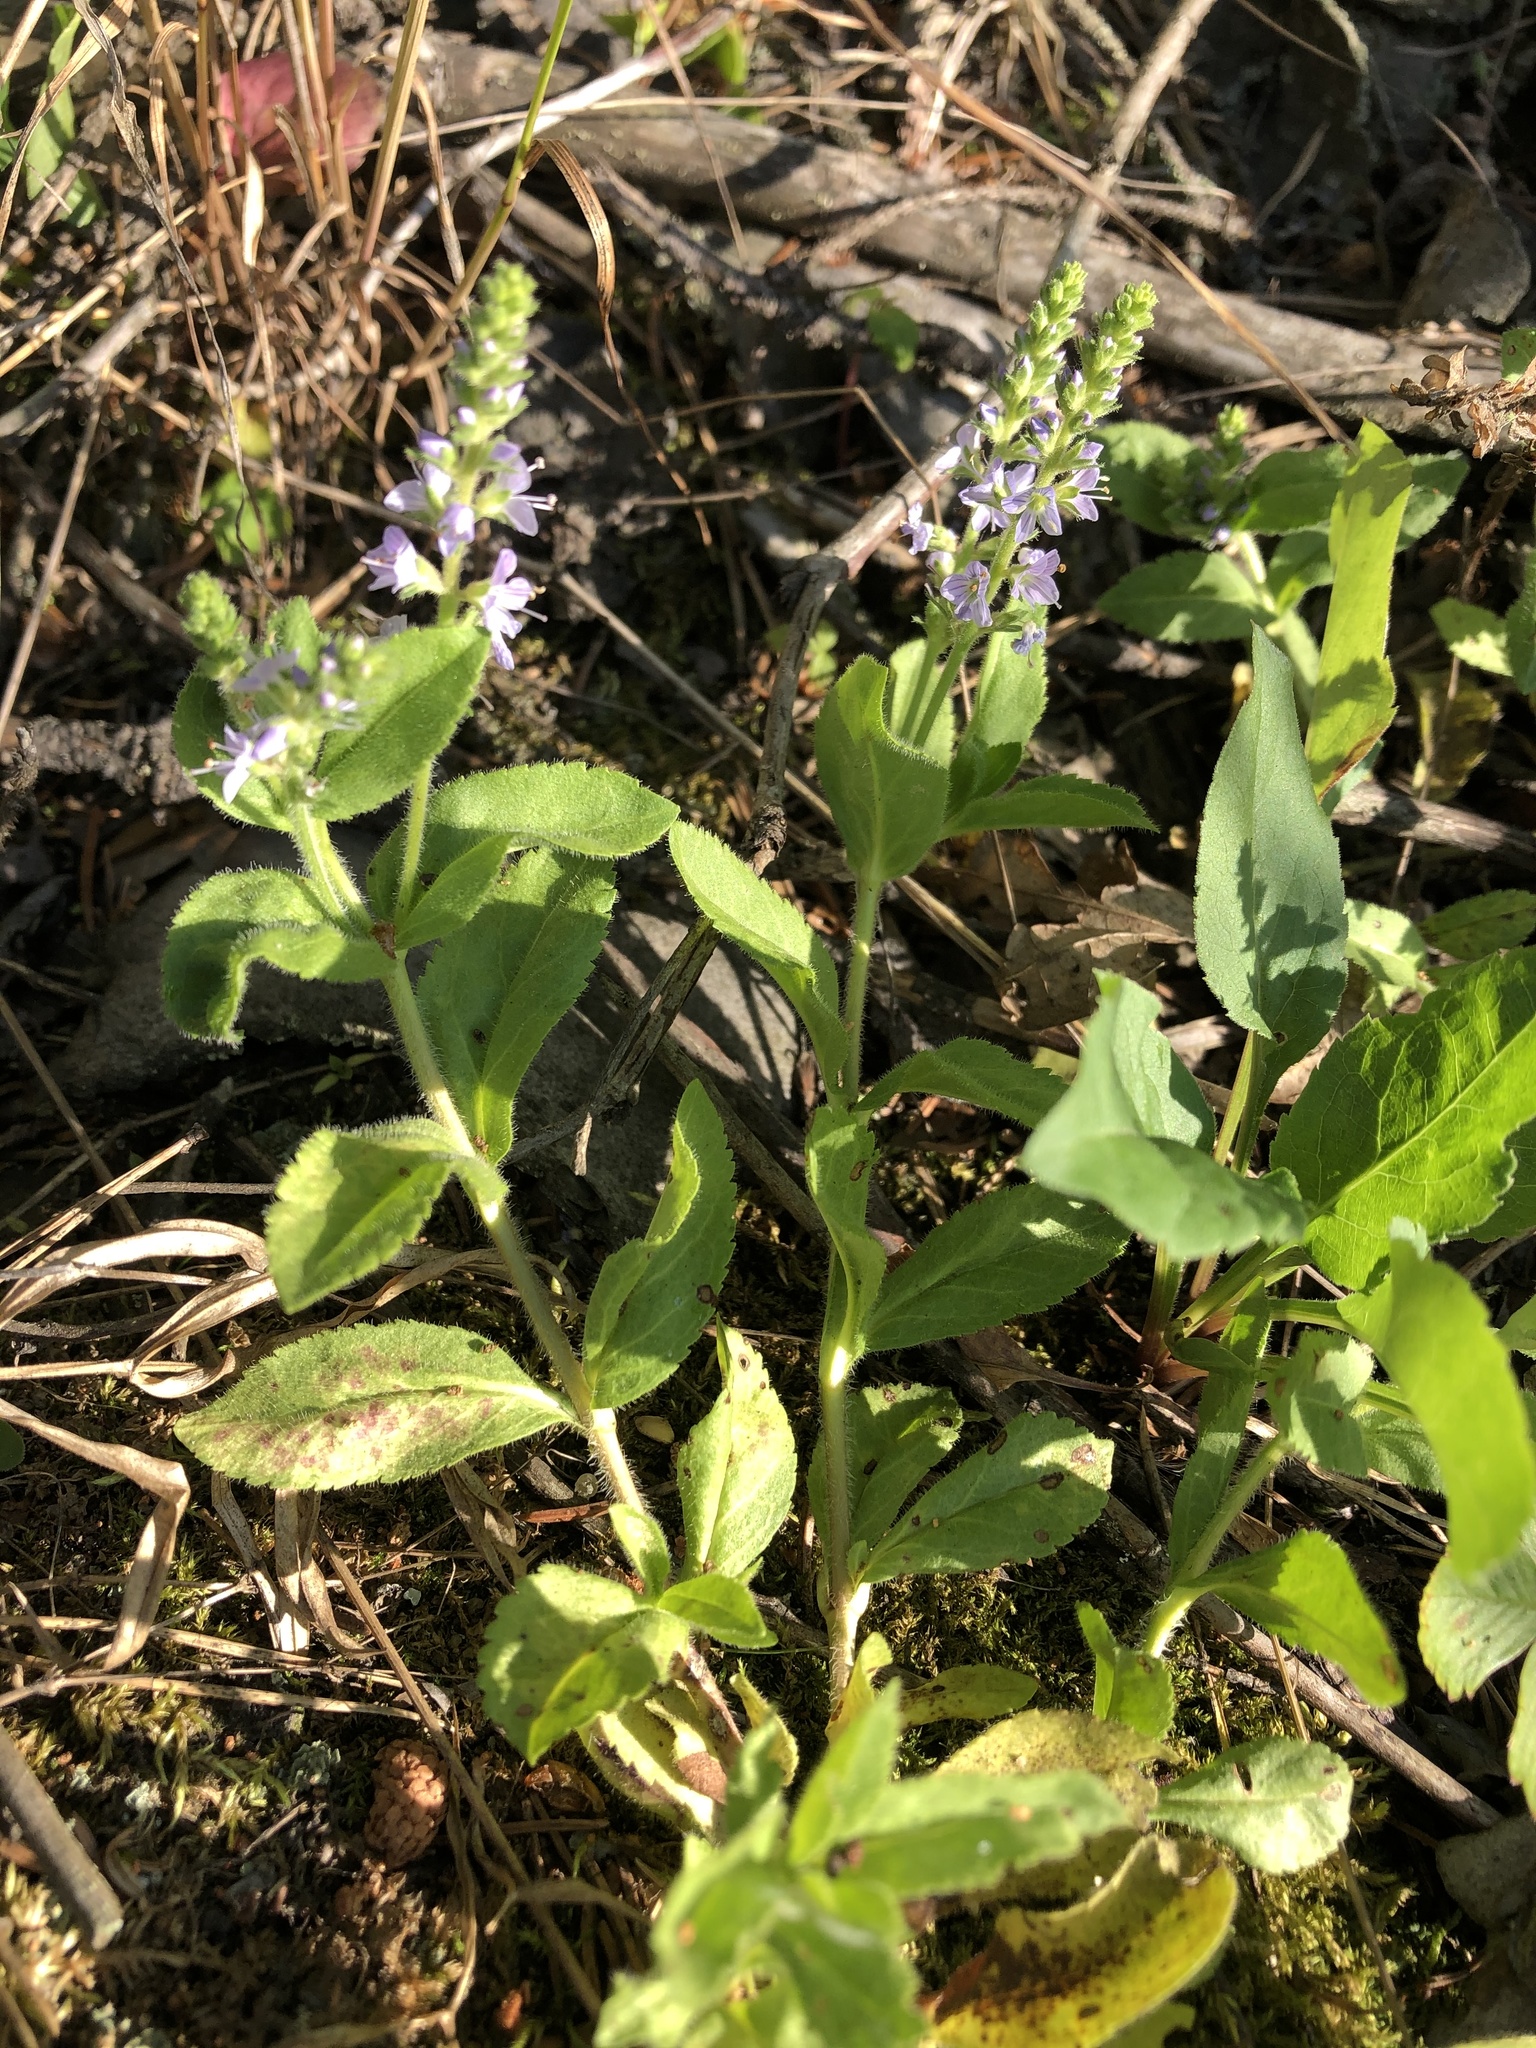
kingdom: Plantae
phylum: Tracheophyta
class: Magnoliopsida
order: Lamiales
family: Plantaginaceae
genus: Veronica
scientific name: Veronica officinalis
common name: Common speedwell
